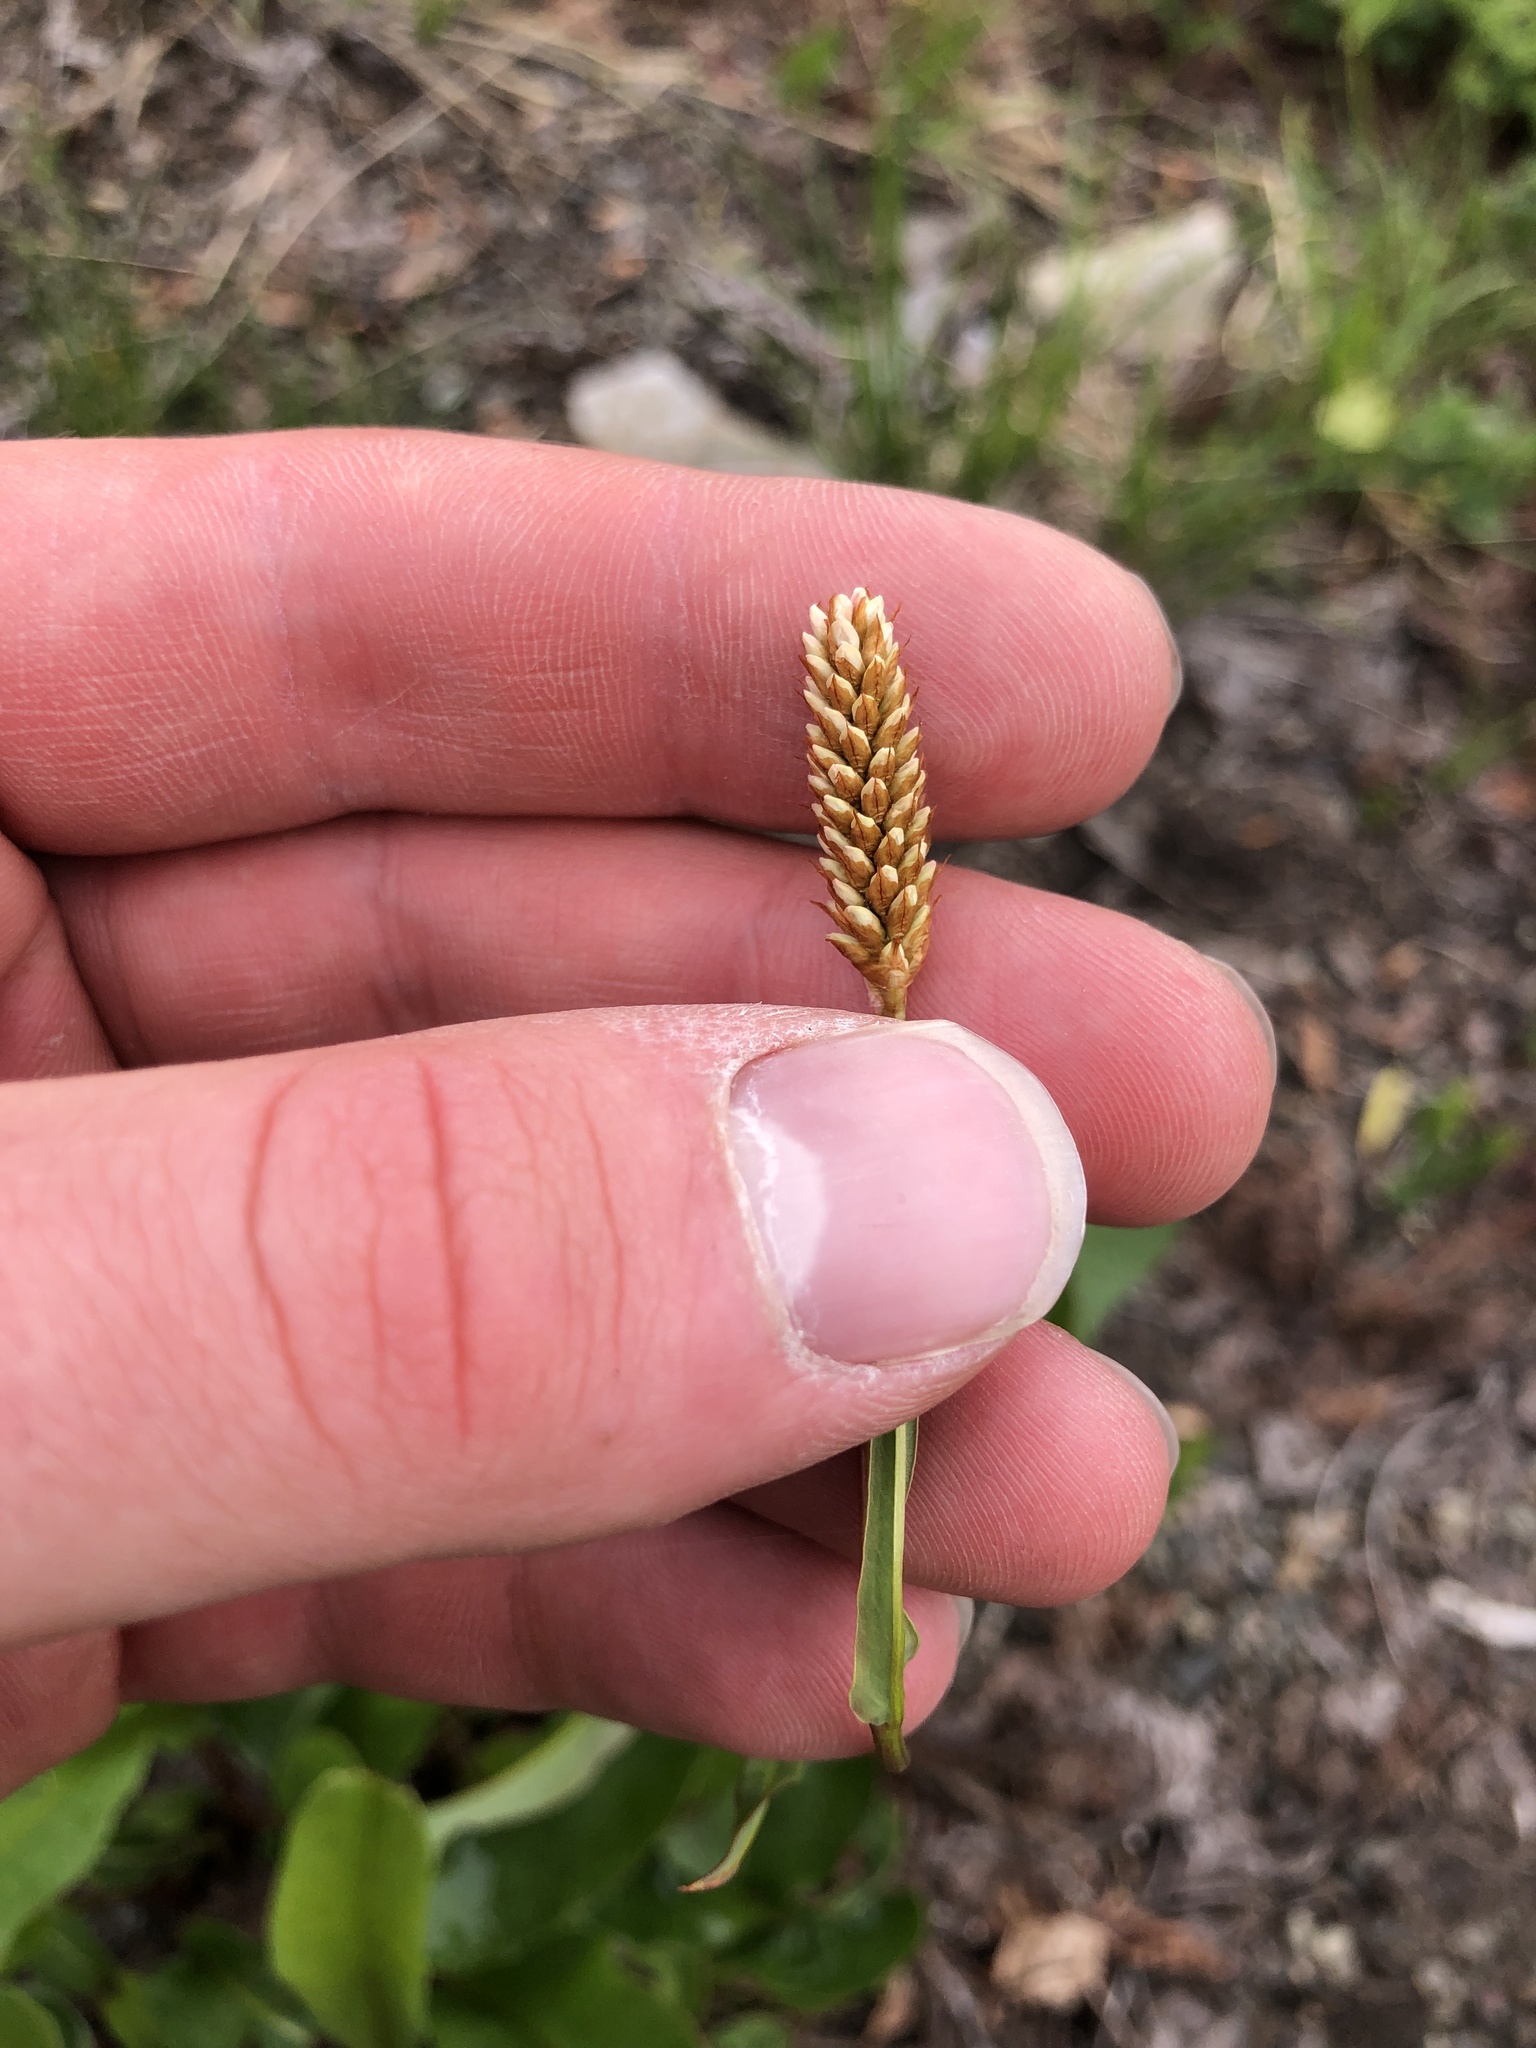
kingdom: Plantae
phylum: Tracheophyta
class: Magnoliopsida
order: Caryophyllales
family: Polygonaceae
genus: Bistorta
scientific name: Bistorta bistortoides
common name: American bistort
